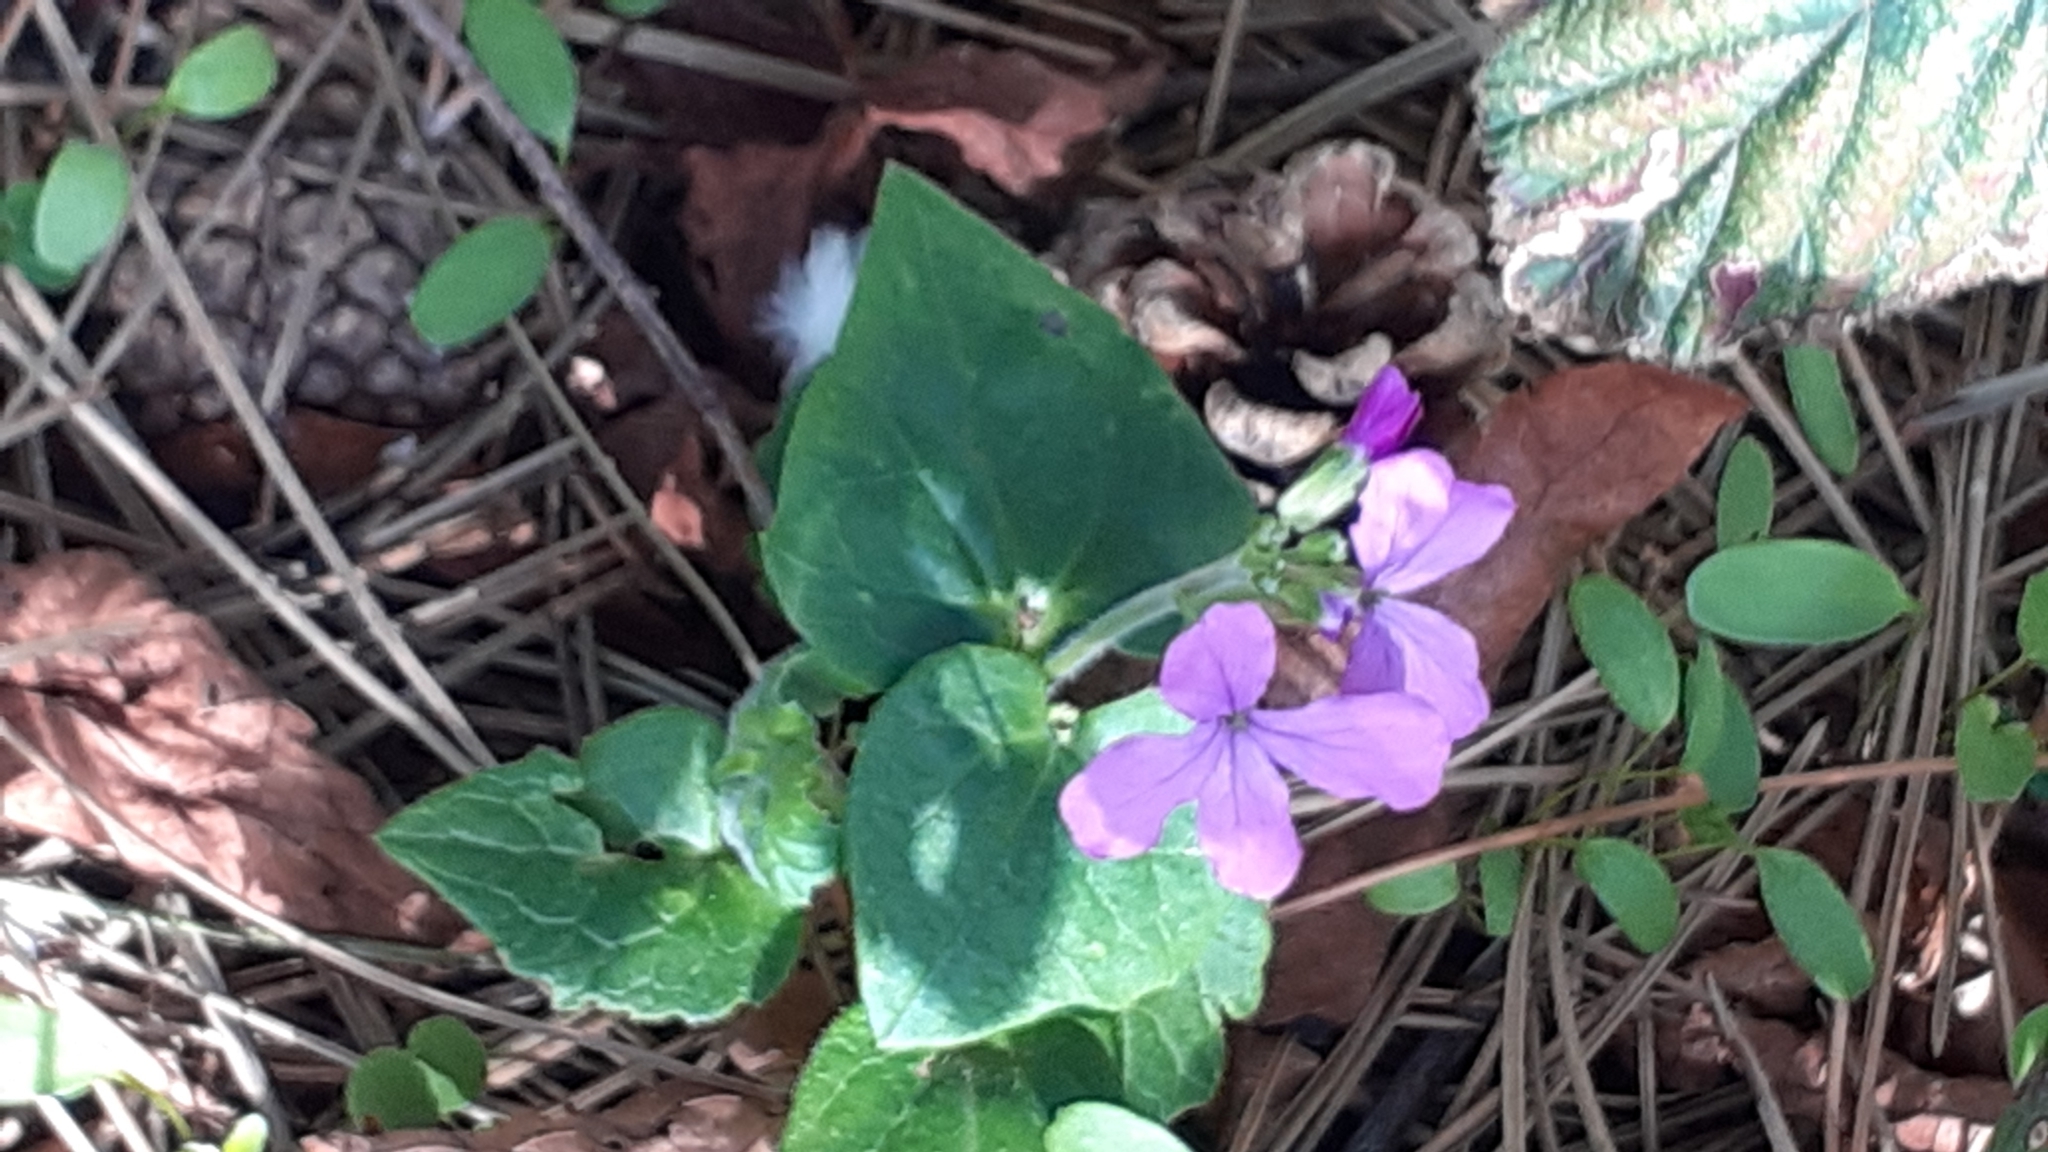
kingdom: Plantae
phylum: Tracheophyta
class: Magnoliopsida
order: Brassicales
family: Brassicaceae
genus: Lunaria
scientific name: Lunaria annua
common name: Honesty
